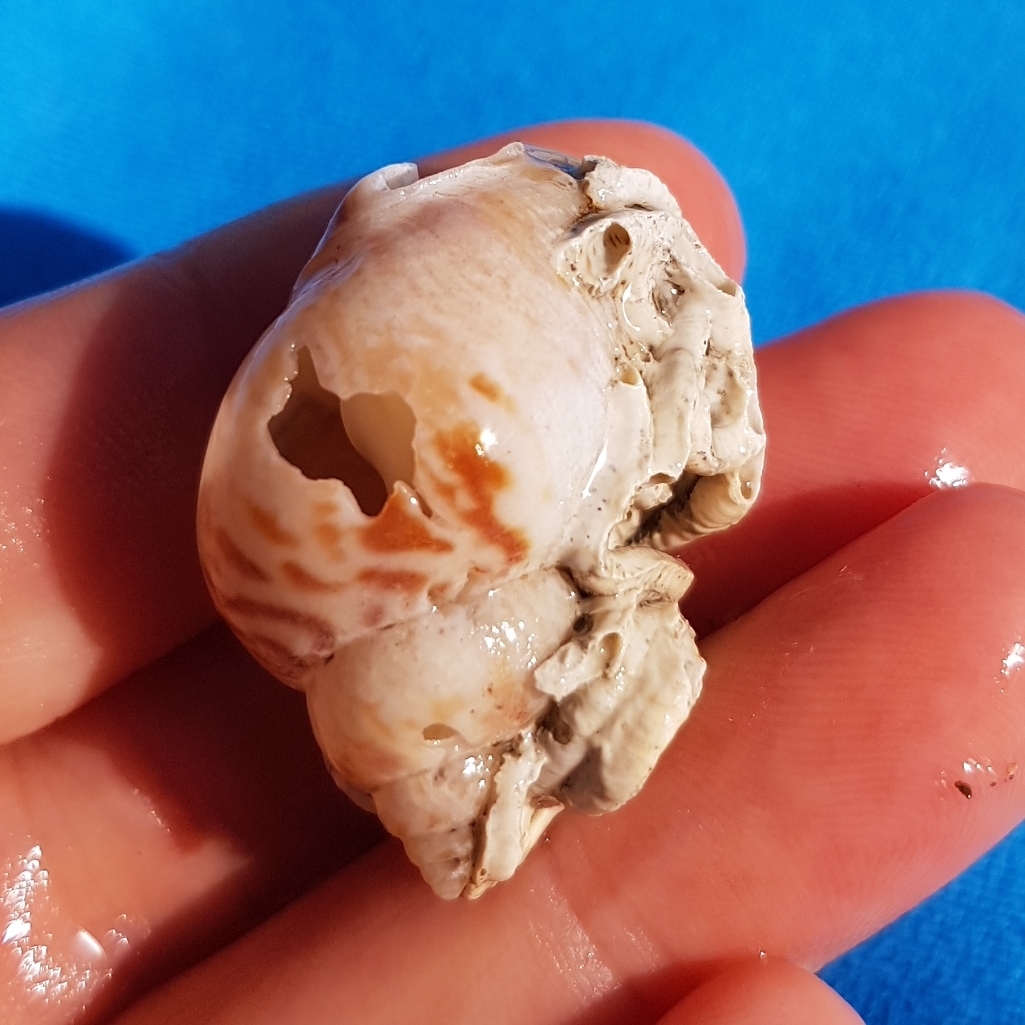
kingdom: Animalia
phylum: Mollusca
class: Gastropoda
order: Neogastropoda
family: Nassariidae
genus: Tritia
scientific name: Tritia mutabilis
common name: Mutable nassa
